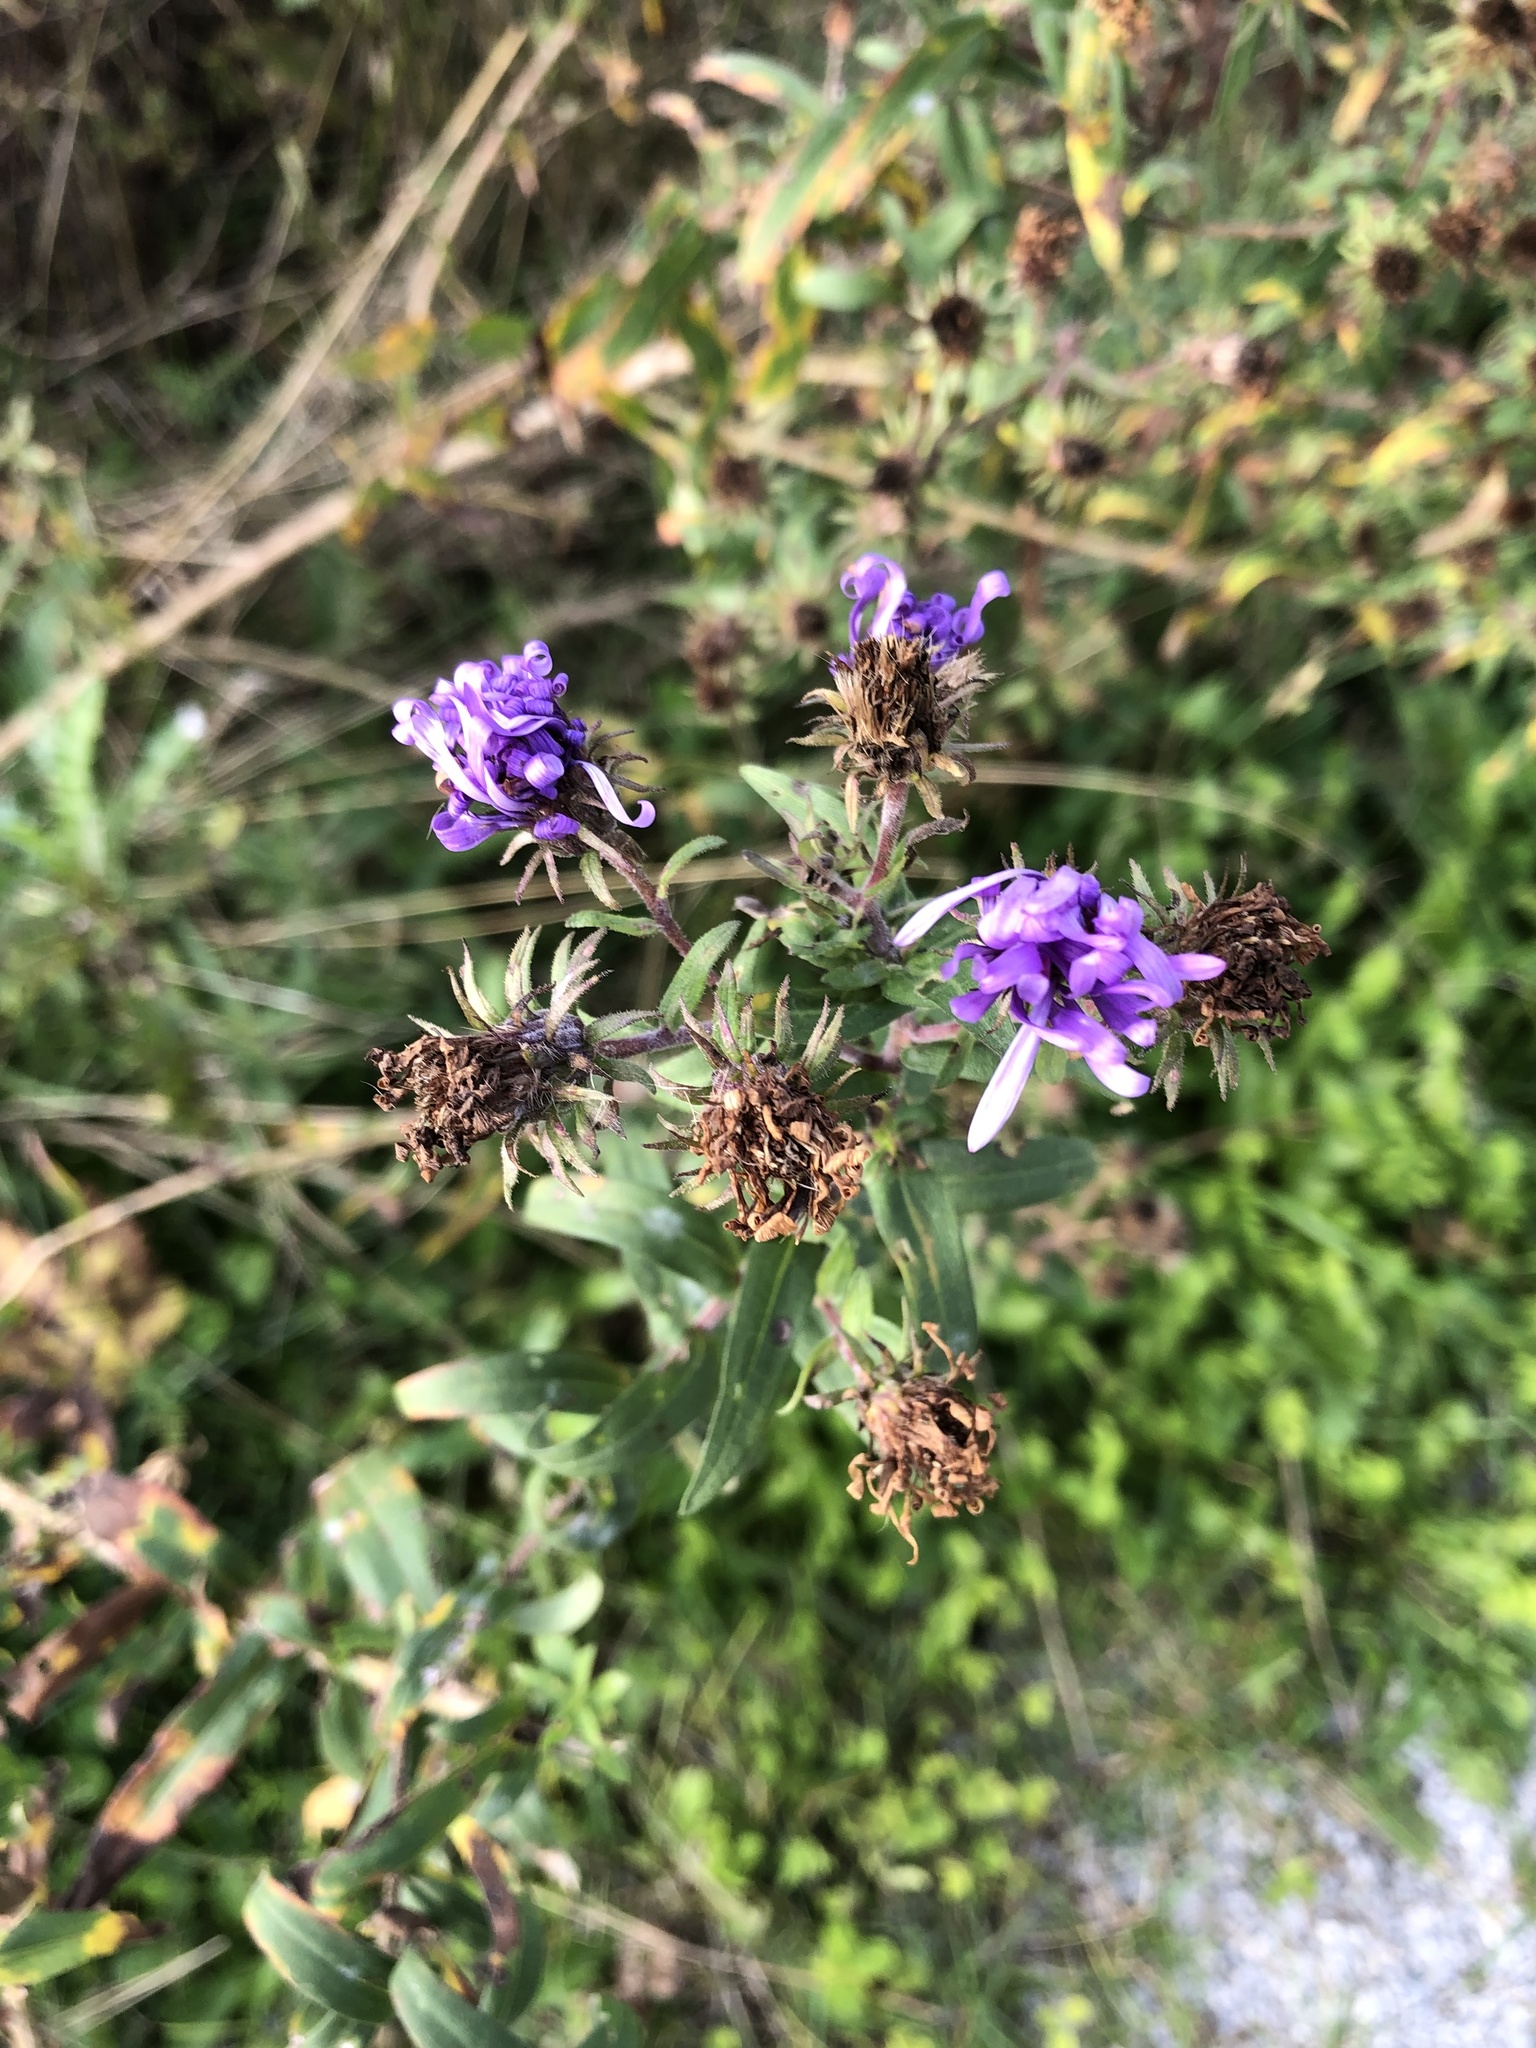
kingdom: Plantae
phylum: Tracheophyta
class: Magnoliopsida
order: Asterales
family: Asteraceae
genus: Symphyotrichum
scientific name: Symphyotrichum novae-angliae
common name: Michaelmas daisy
